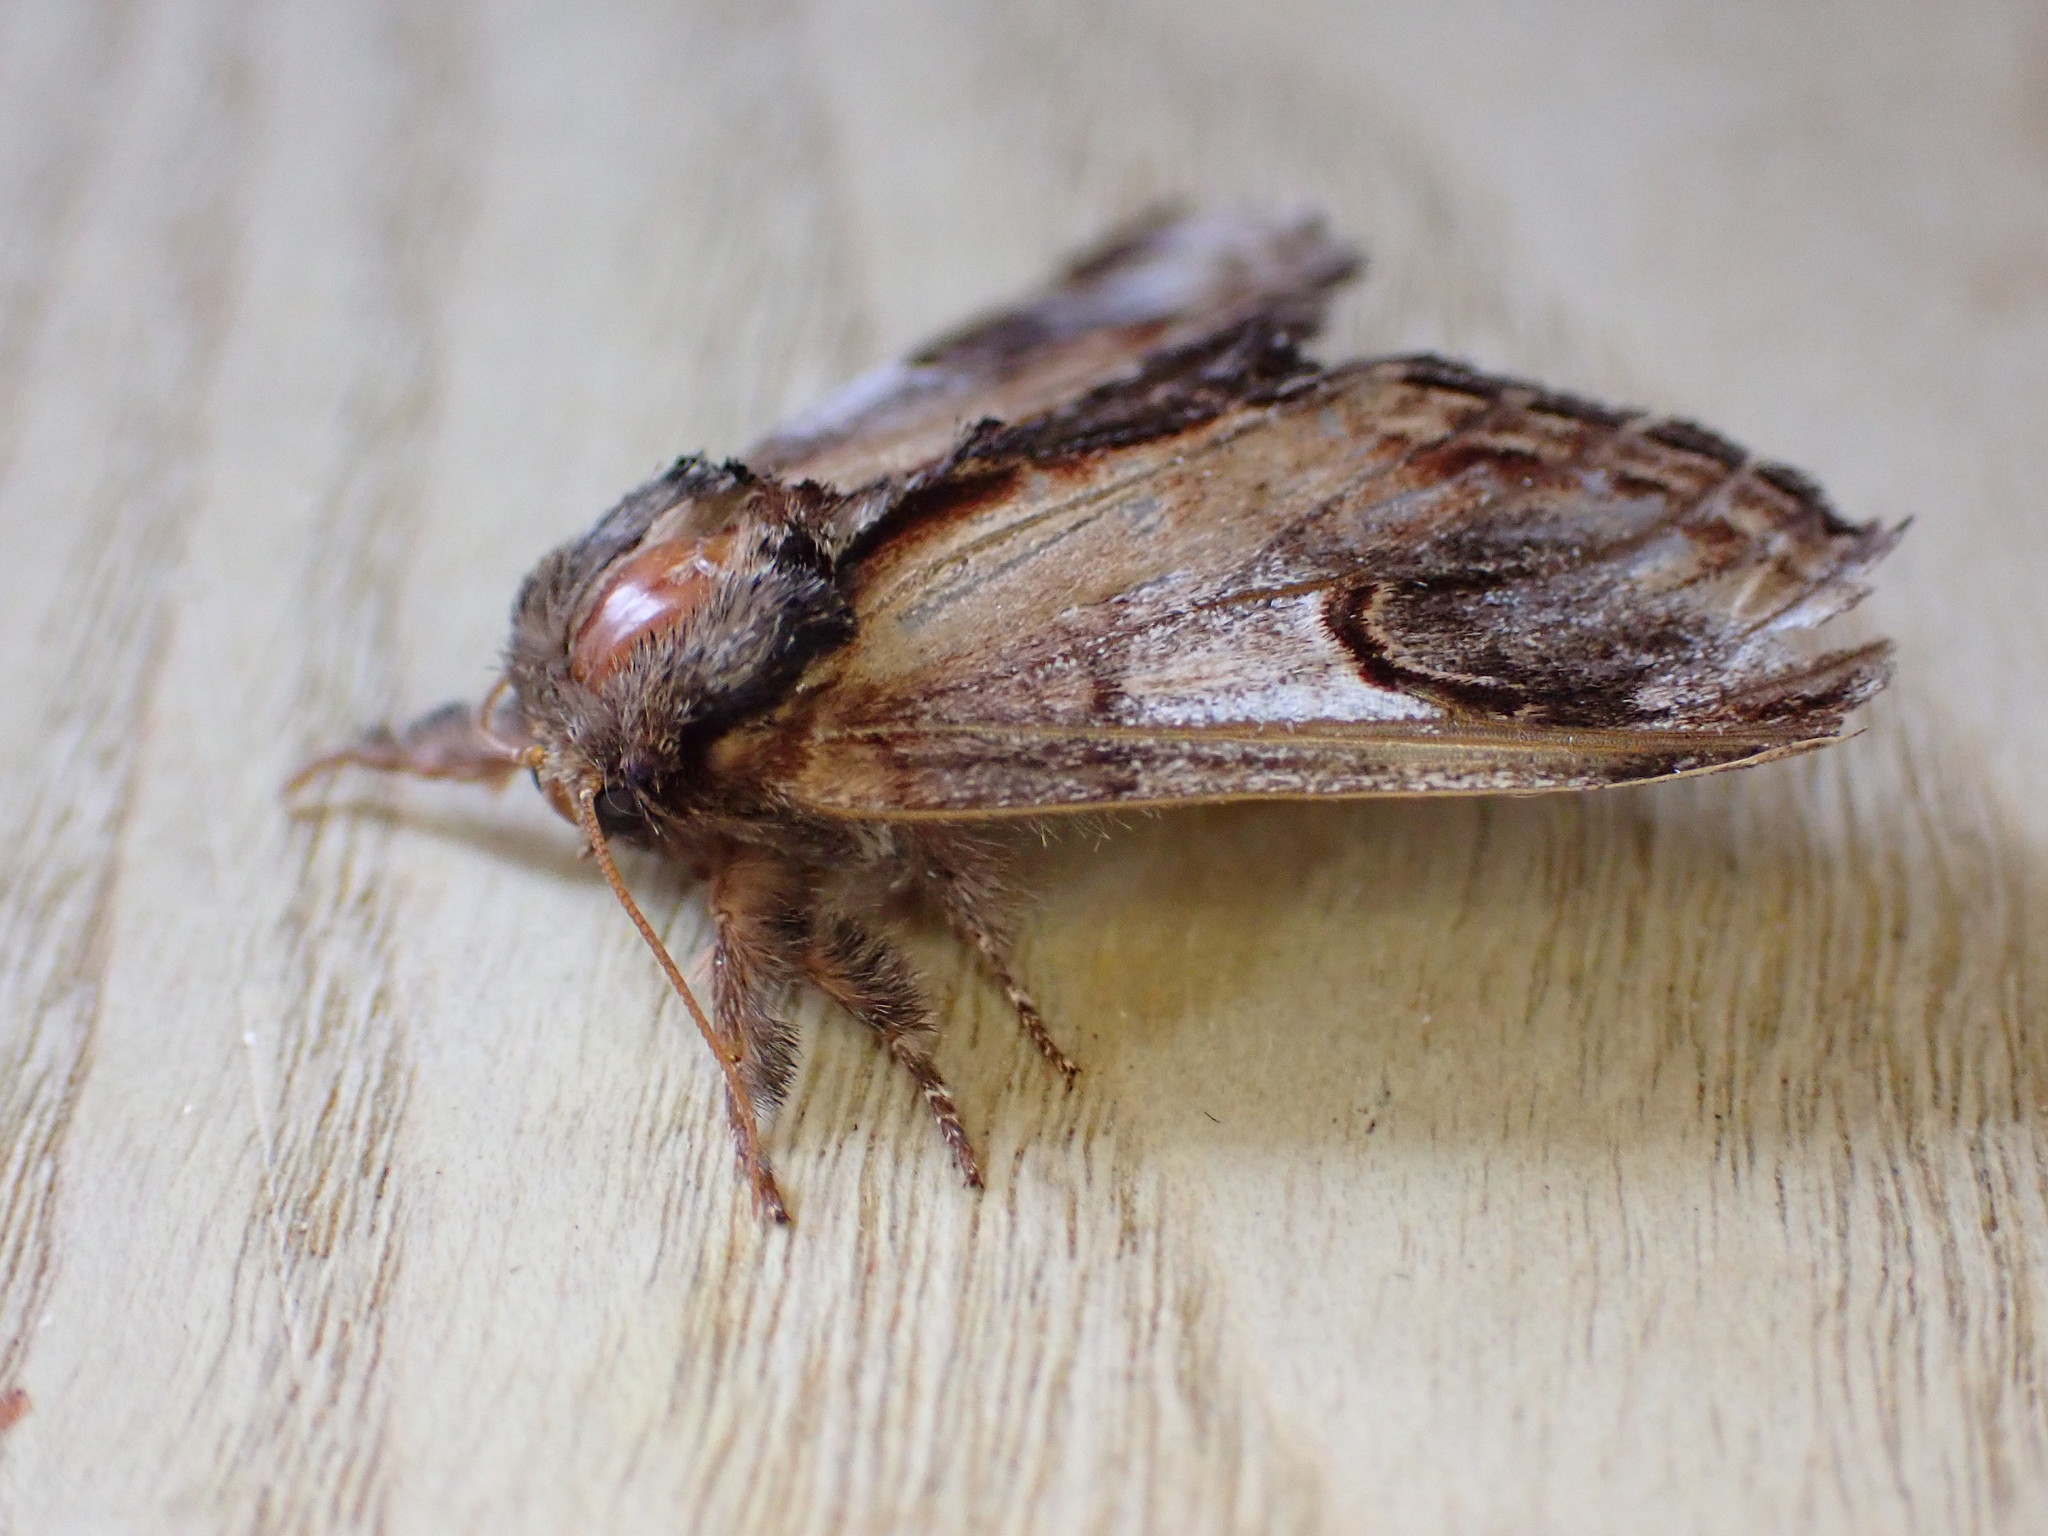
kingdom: Animalia
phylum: Arthropoda
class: Insecta
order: Lepidoptera
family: Notodontidae
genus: Notodonta
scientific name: Notodonta ziczac
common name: Pebble prominent
